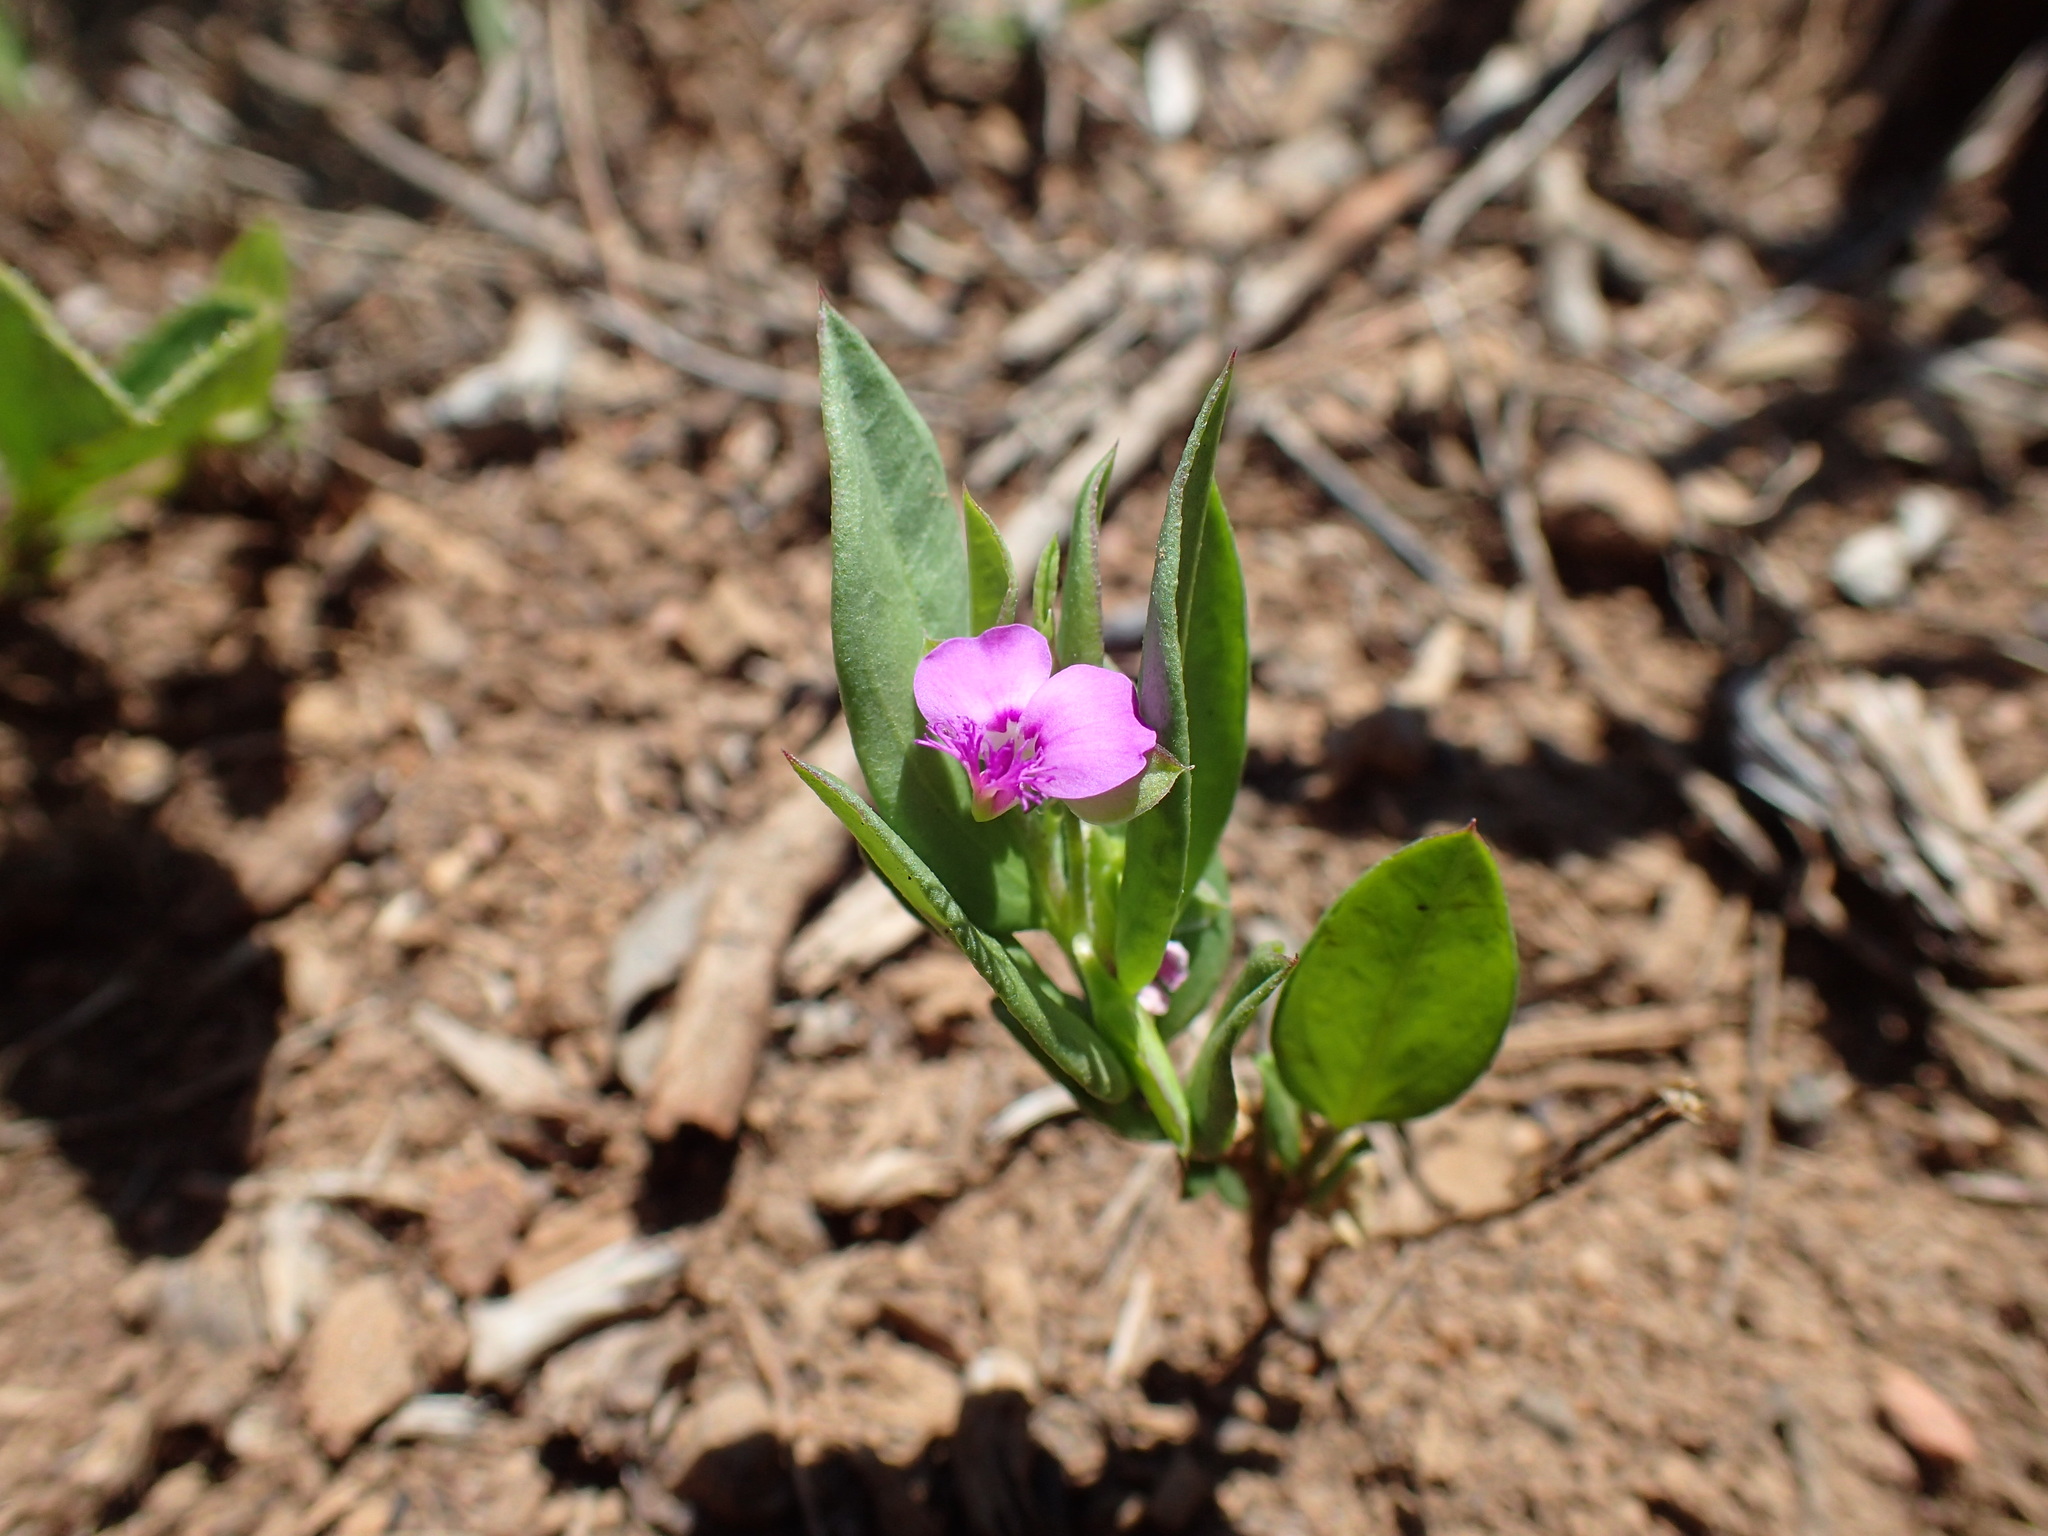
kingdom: Plantae
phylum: Tracheophyta
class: Magnoliopsida
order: Fabales
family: Polygalaceae
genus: Polygala
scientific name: Polygala amatymbica
